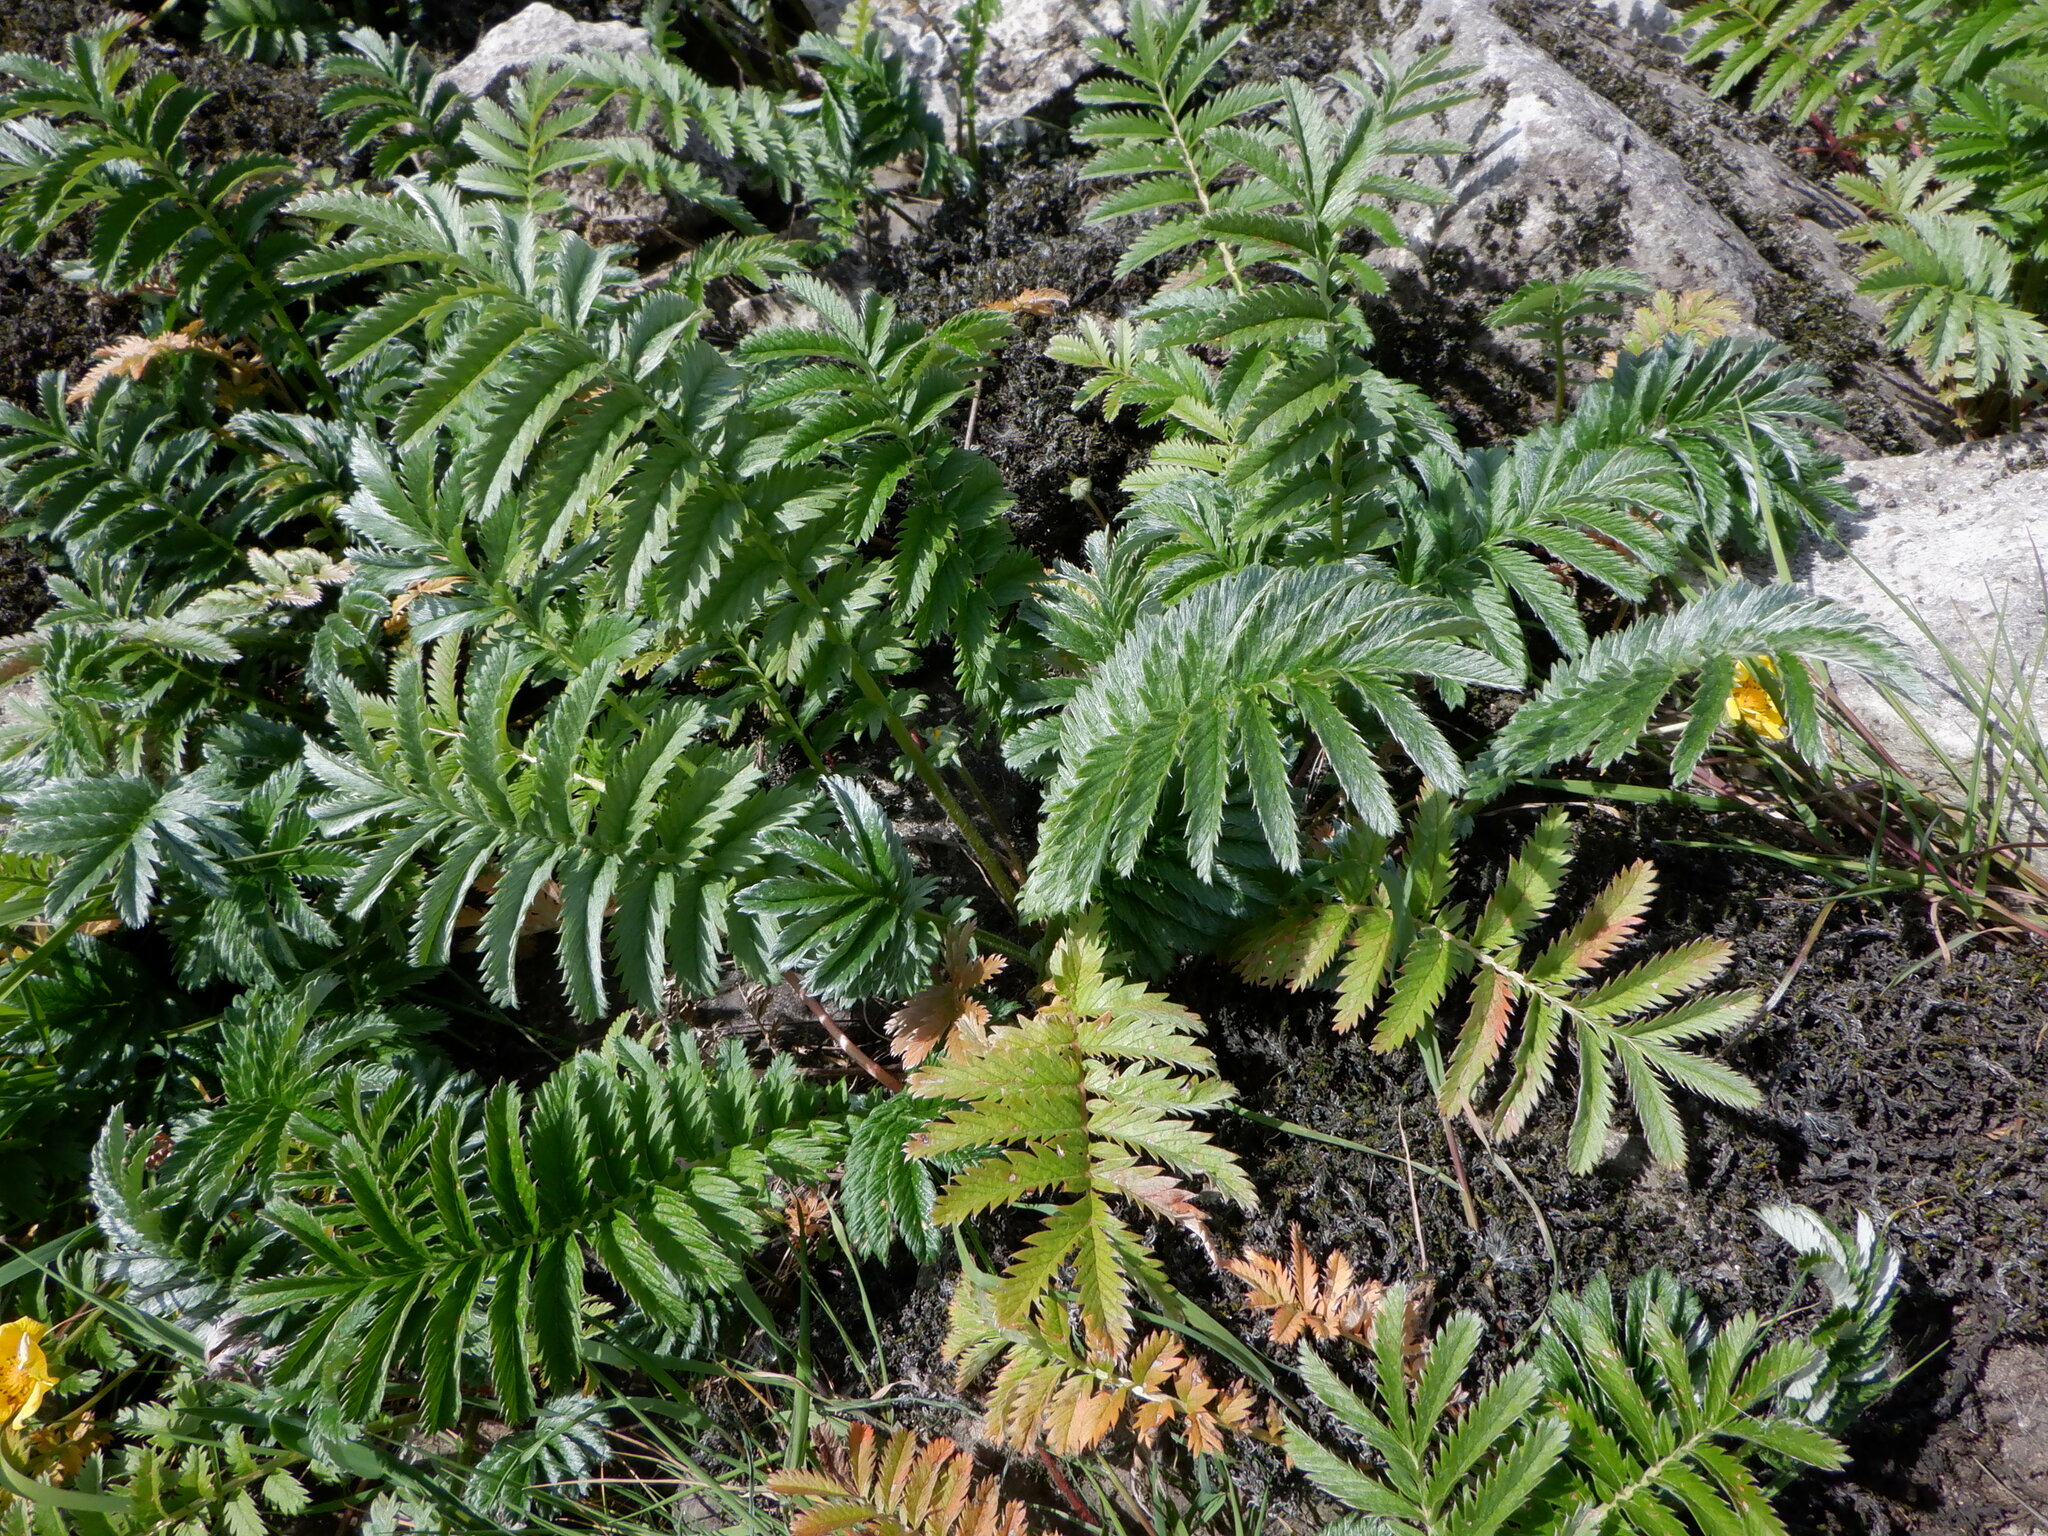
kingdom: Plantae
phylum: Tracheophyta
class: Magnoliopsida
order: Rosales
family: Rosaceae
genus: Argentina
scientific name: Argentina anserina
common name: Common silverweed
